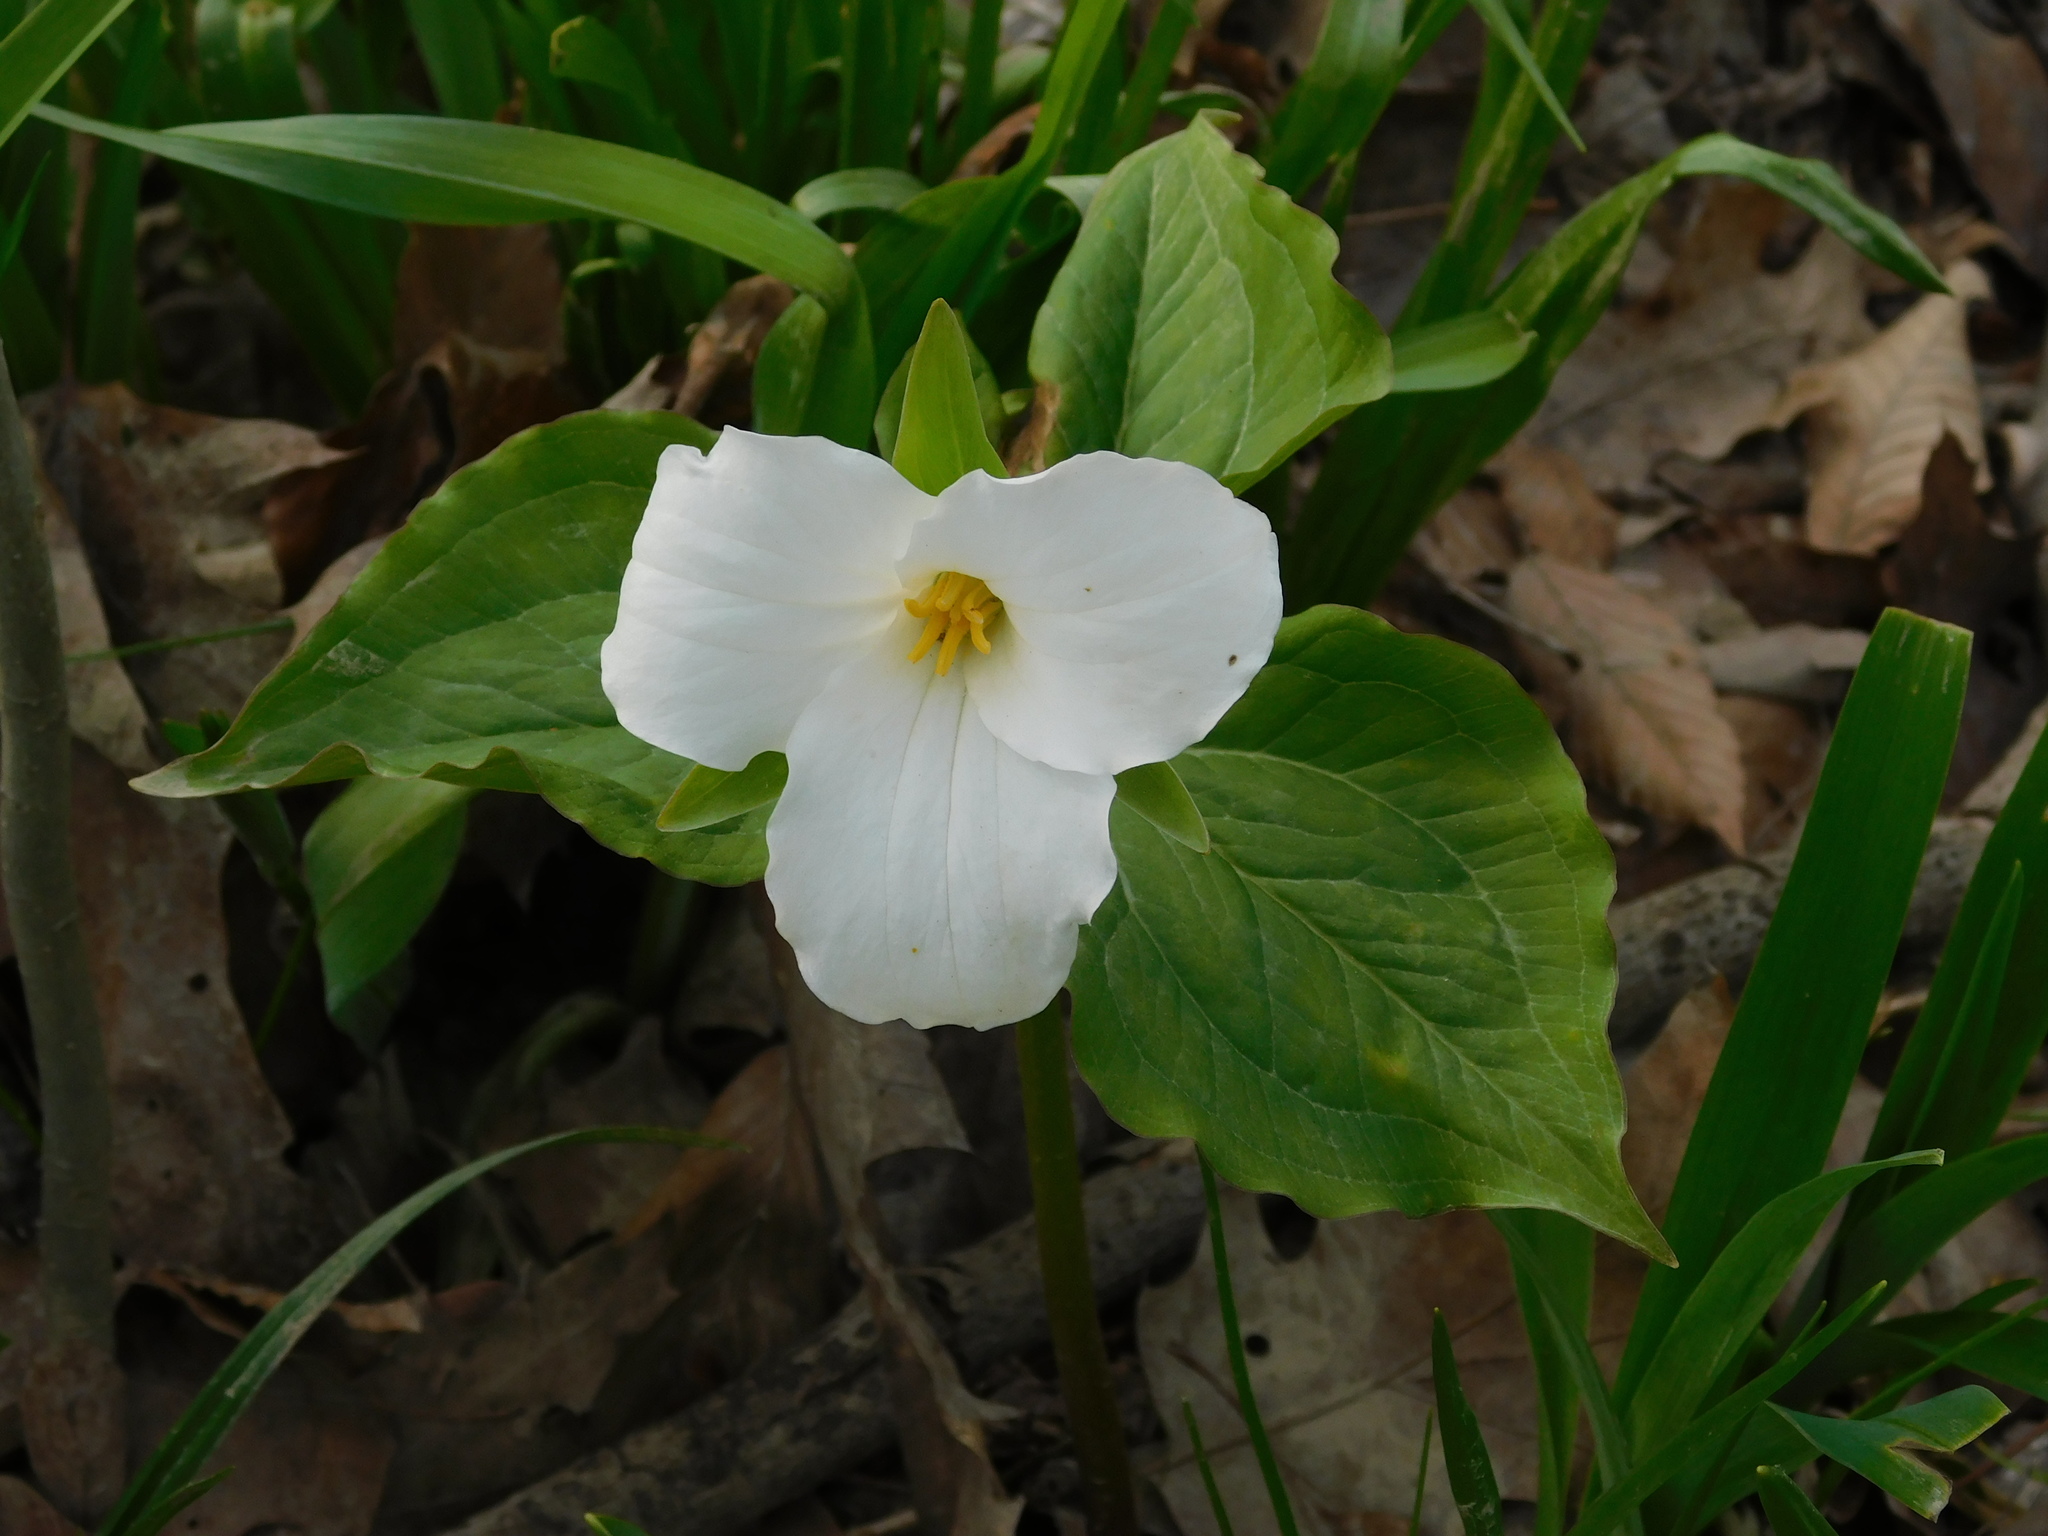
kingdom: Plantae
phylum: Tracheophyta
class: Liliopsida
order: Liliales
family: Melanthiaceae
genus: Trillium
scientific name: Trillium grandiflorum
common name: Great white trillium
